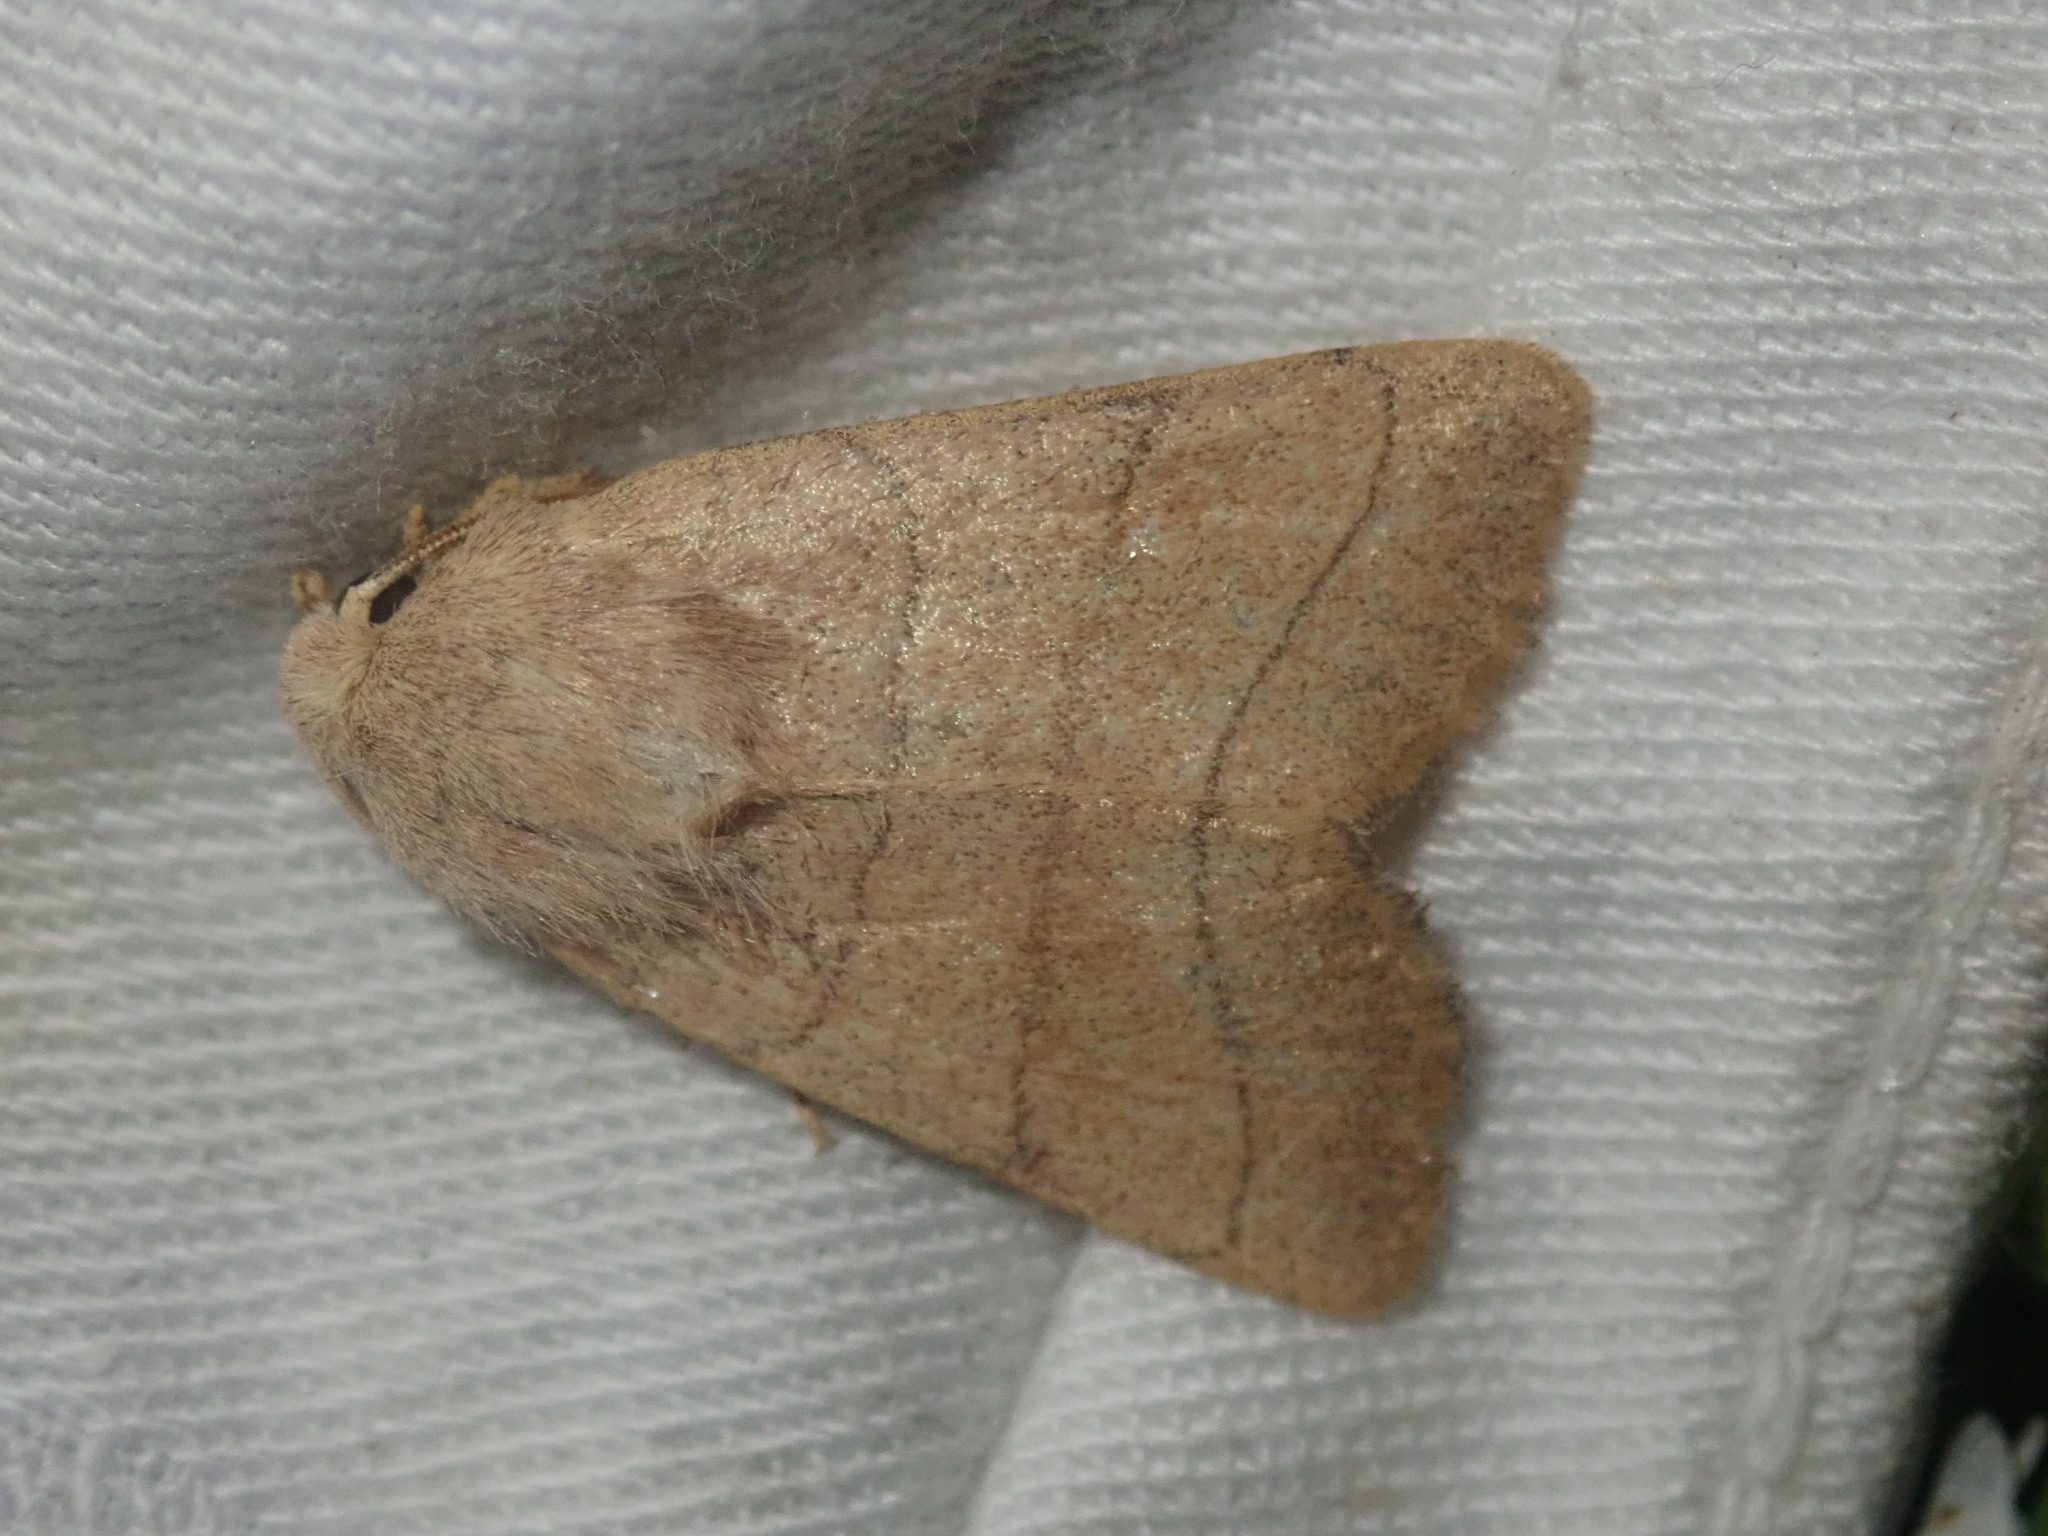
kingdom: Animalia
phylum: Arthropoda
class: Insecta
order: Lepidoptera
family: Noctuidae
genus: Charanyca
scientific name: Charanyca trigrammica
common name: Treble lines
